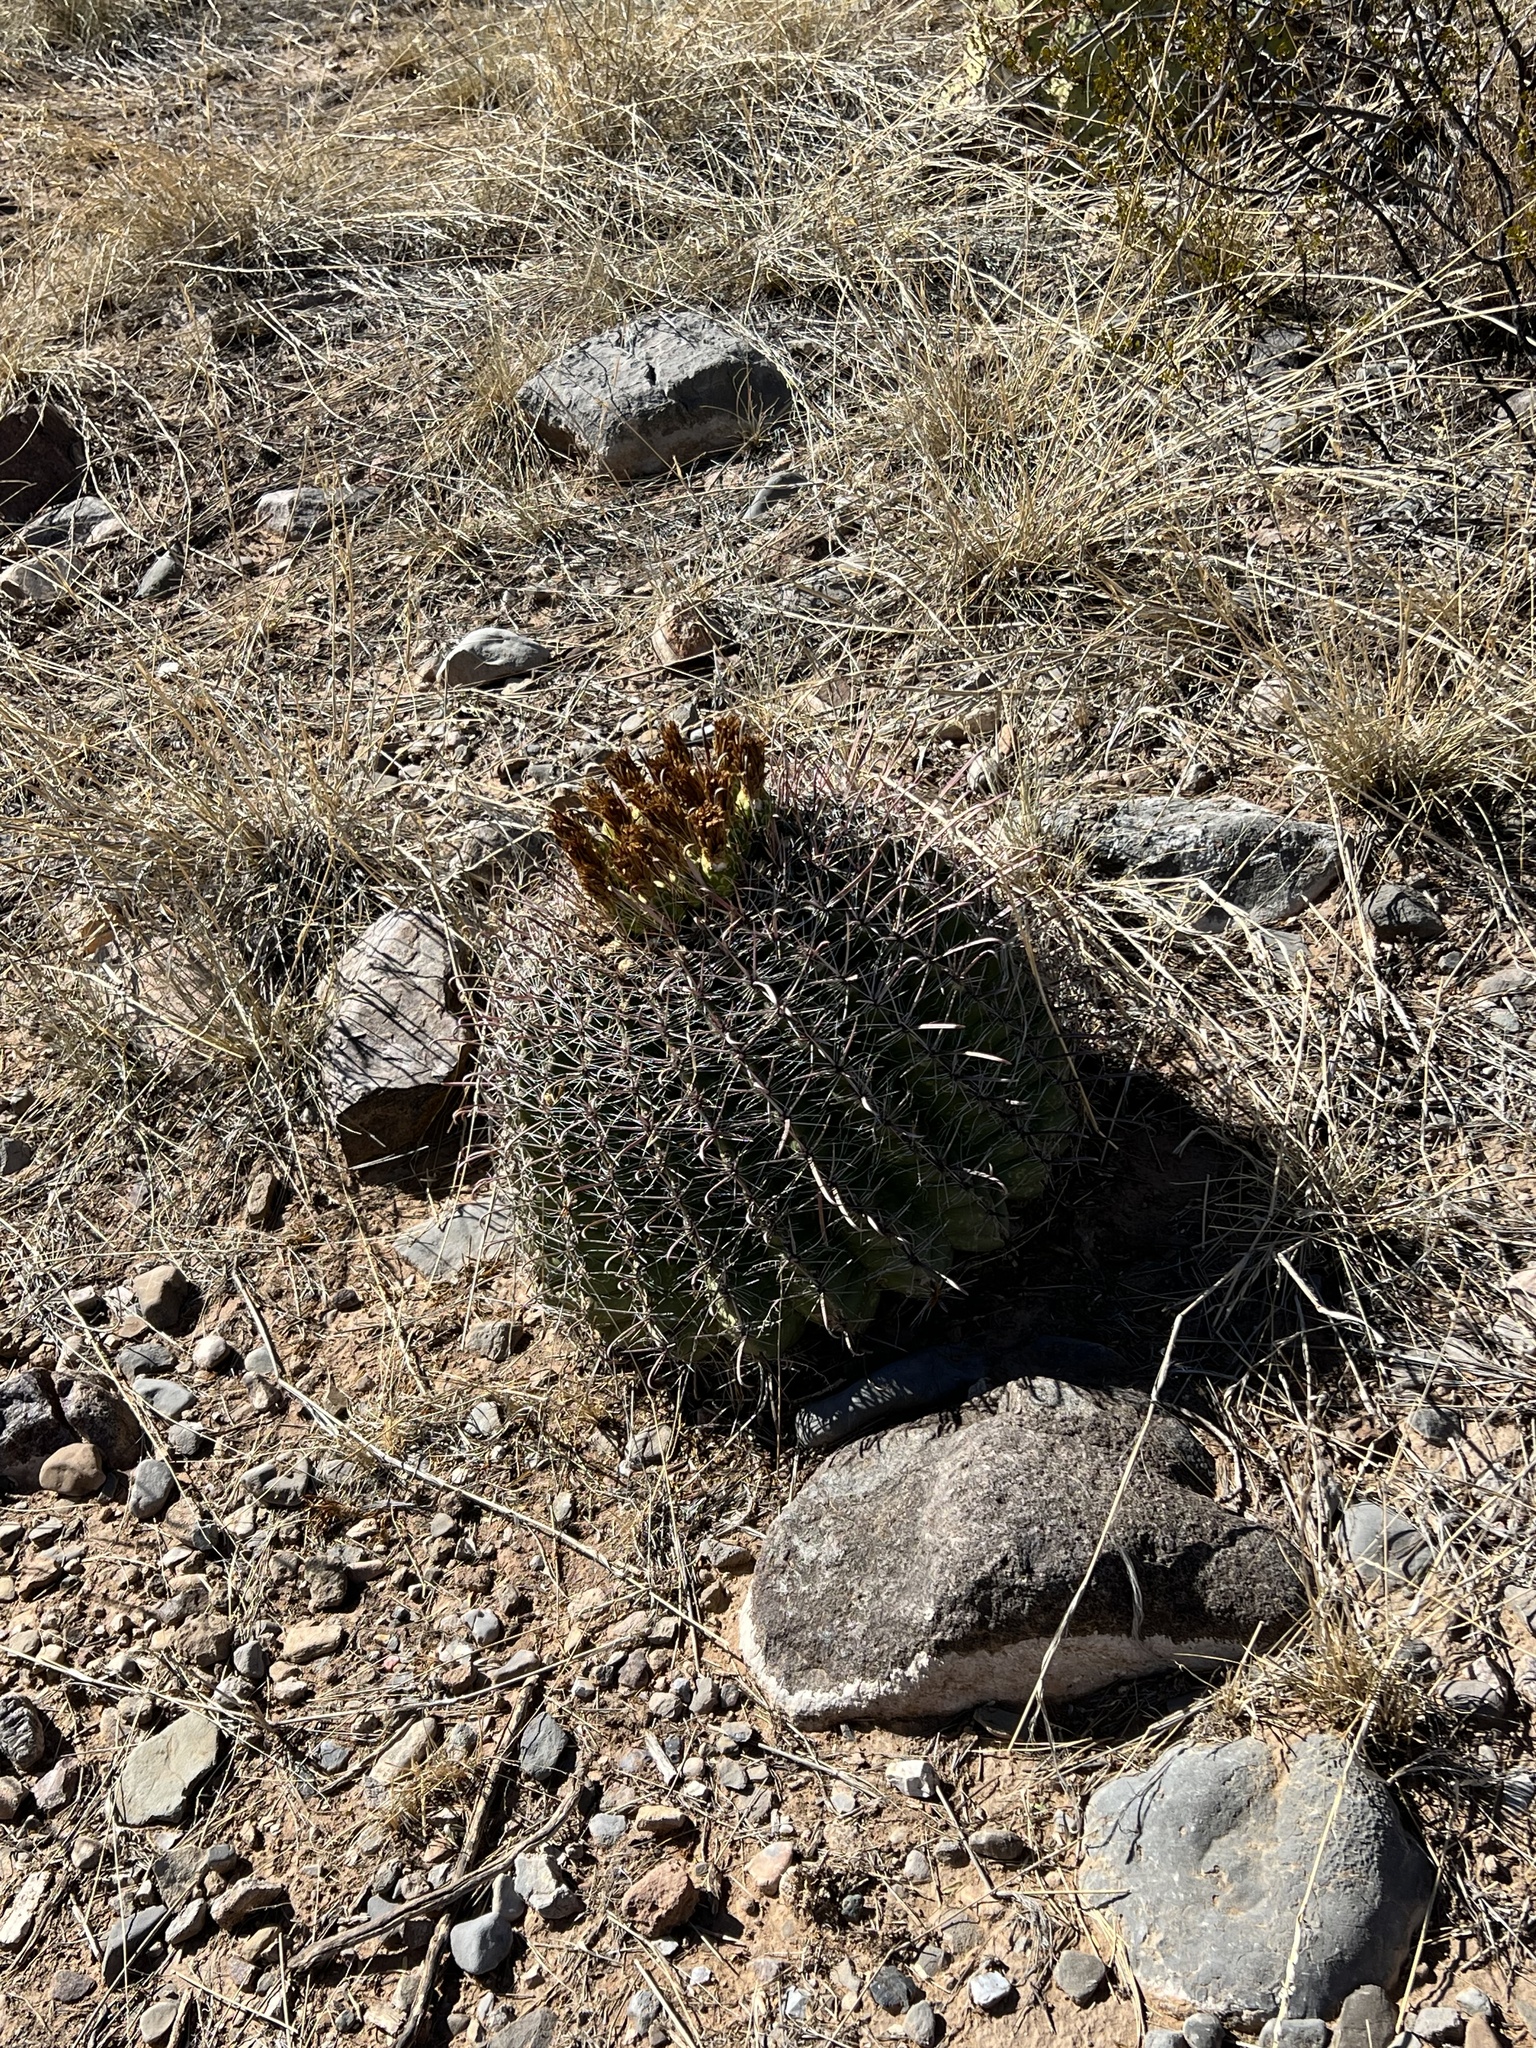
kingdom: Plantae
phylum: Tracheophyta
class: Magnoliopsida
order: Caryophyllales
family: Cactaceae
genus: Ferocactus
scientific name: Ferocactus wislizeni
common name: Candy barrel cactus
